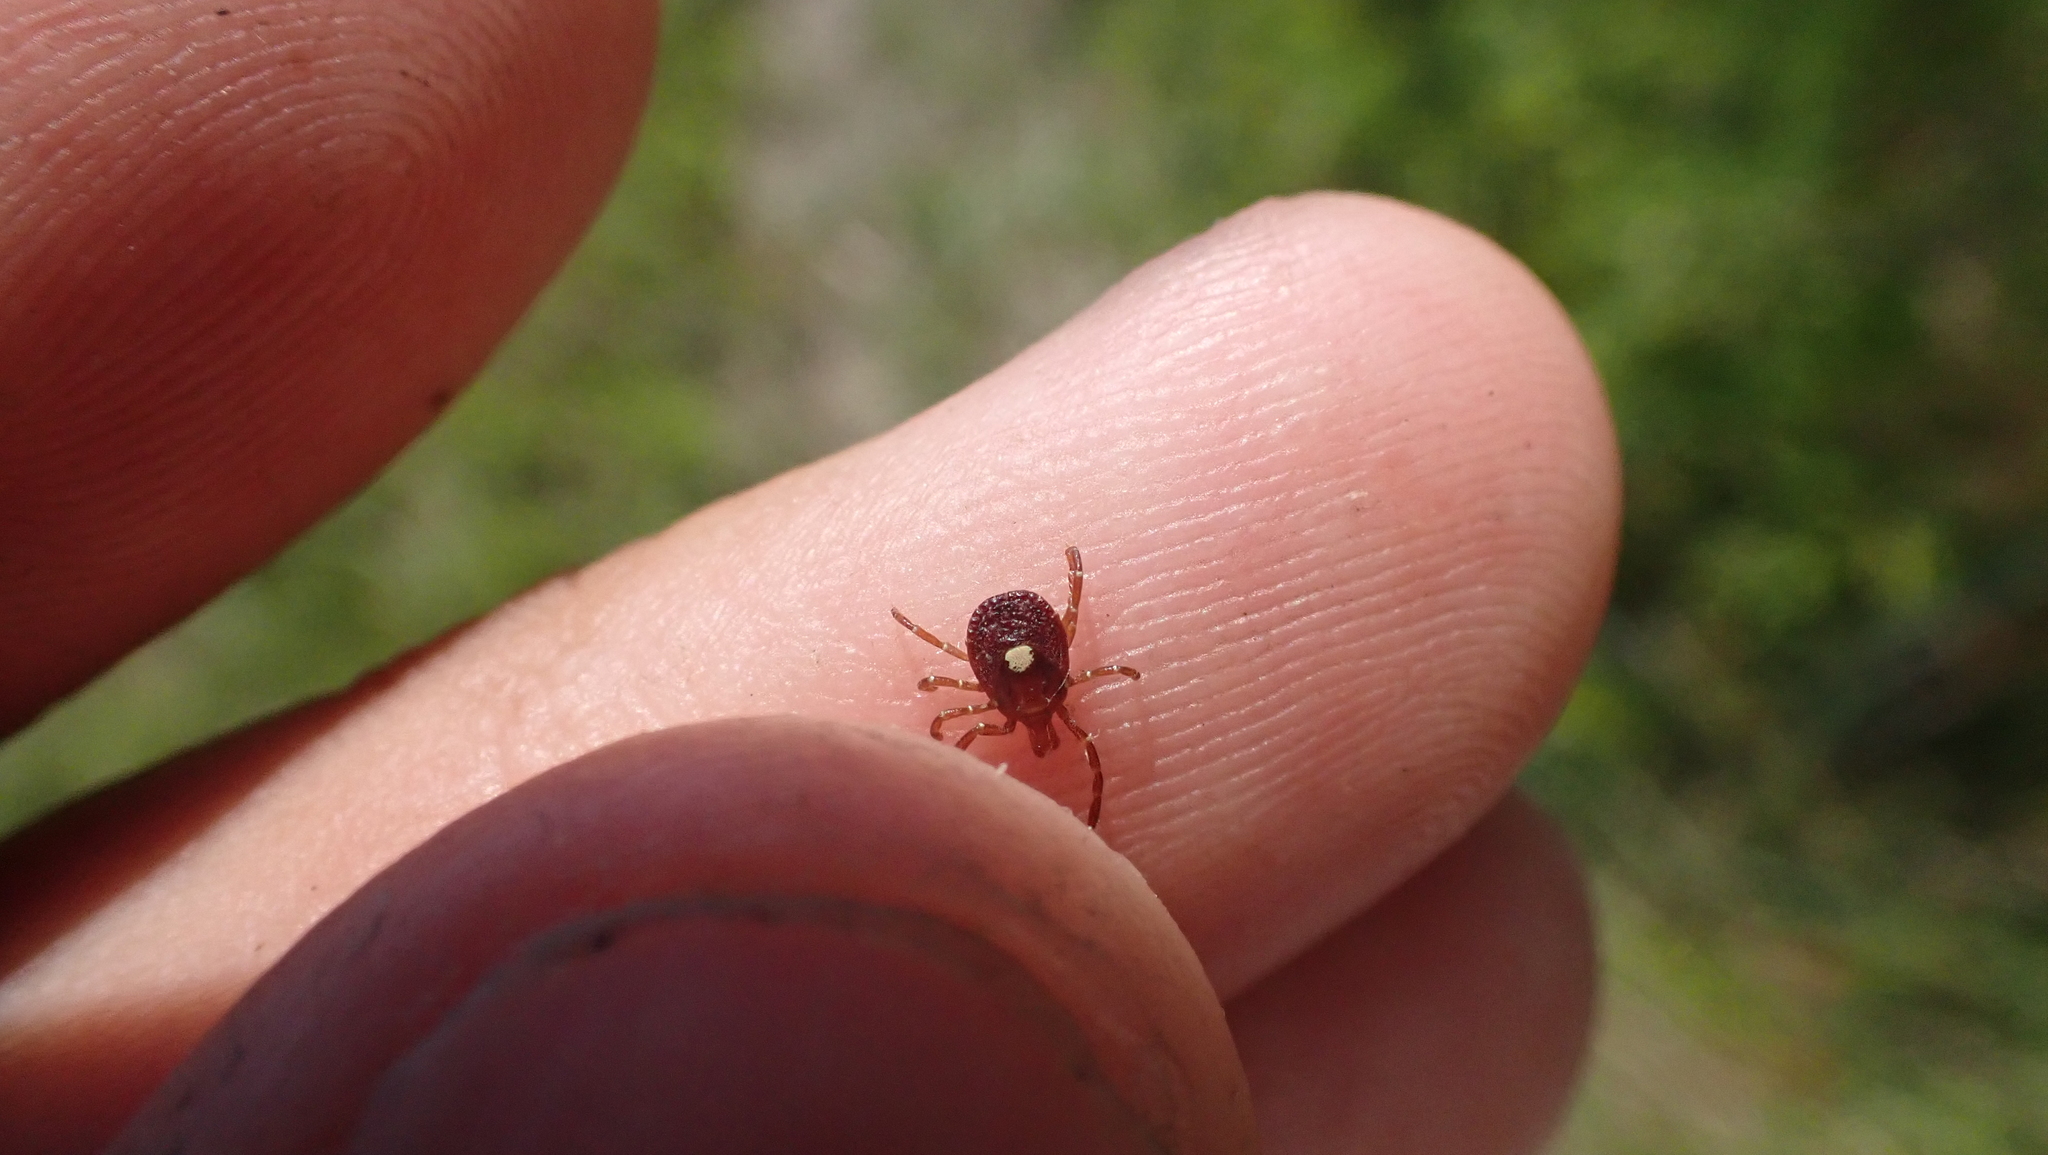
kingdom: Animalia
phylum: Arthropoda
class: Arachnida
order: Ixodida
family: Ixodidae
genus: Amblyomma
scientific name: Amblyomma americanum
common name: Lone star tick
